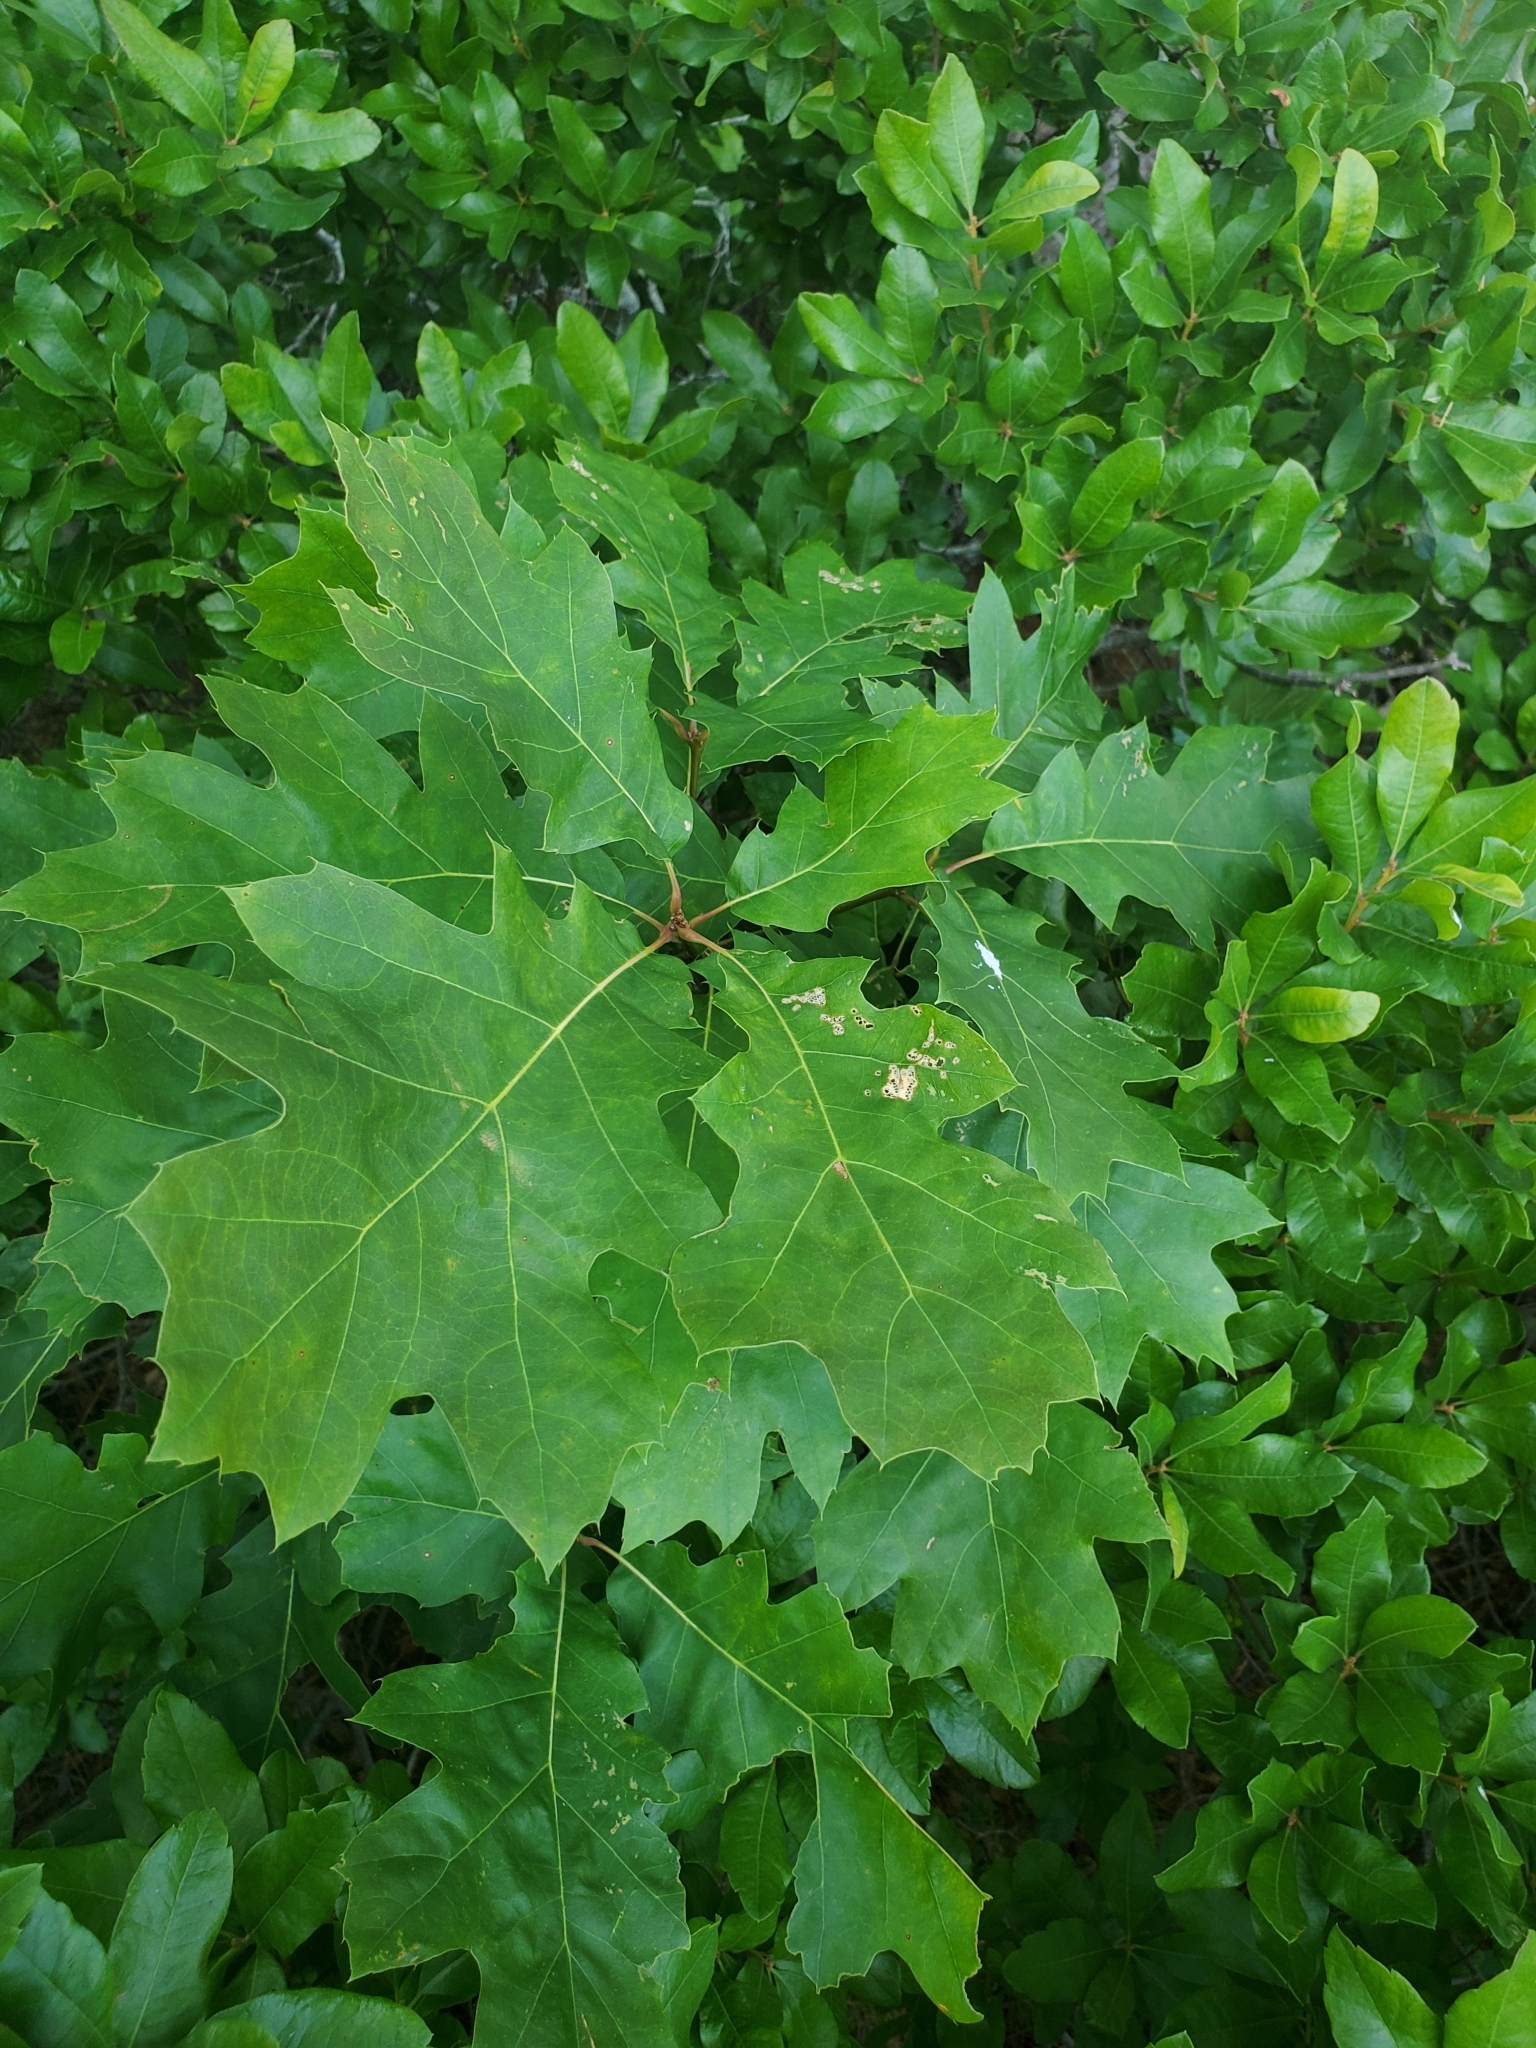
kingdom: Plantae
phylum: Tracheophyta
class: Magnoliopsida
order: Fagales
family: Fagaceae
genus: Quercus
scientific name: Quercus rubra
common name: Red oak
